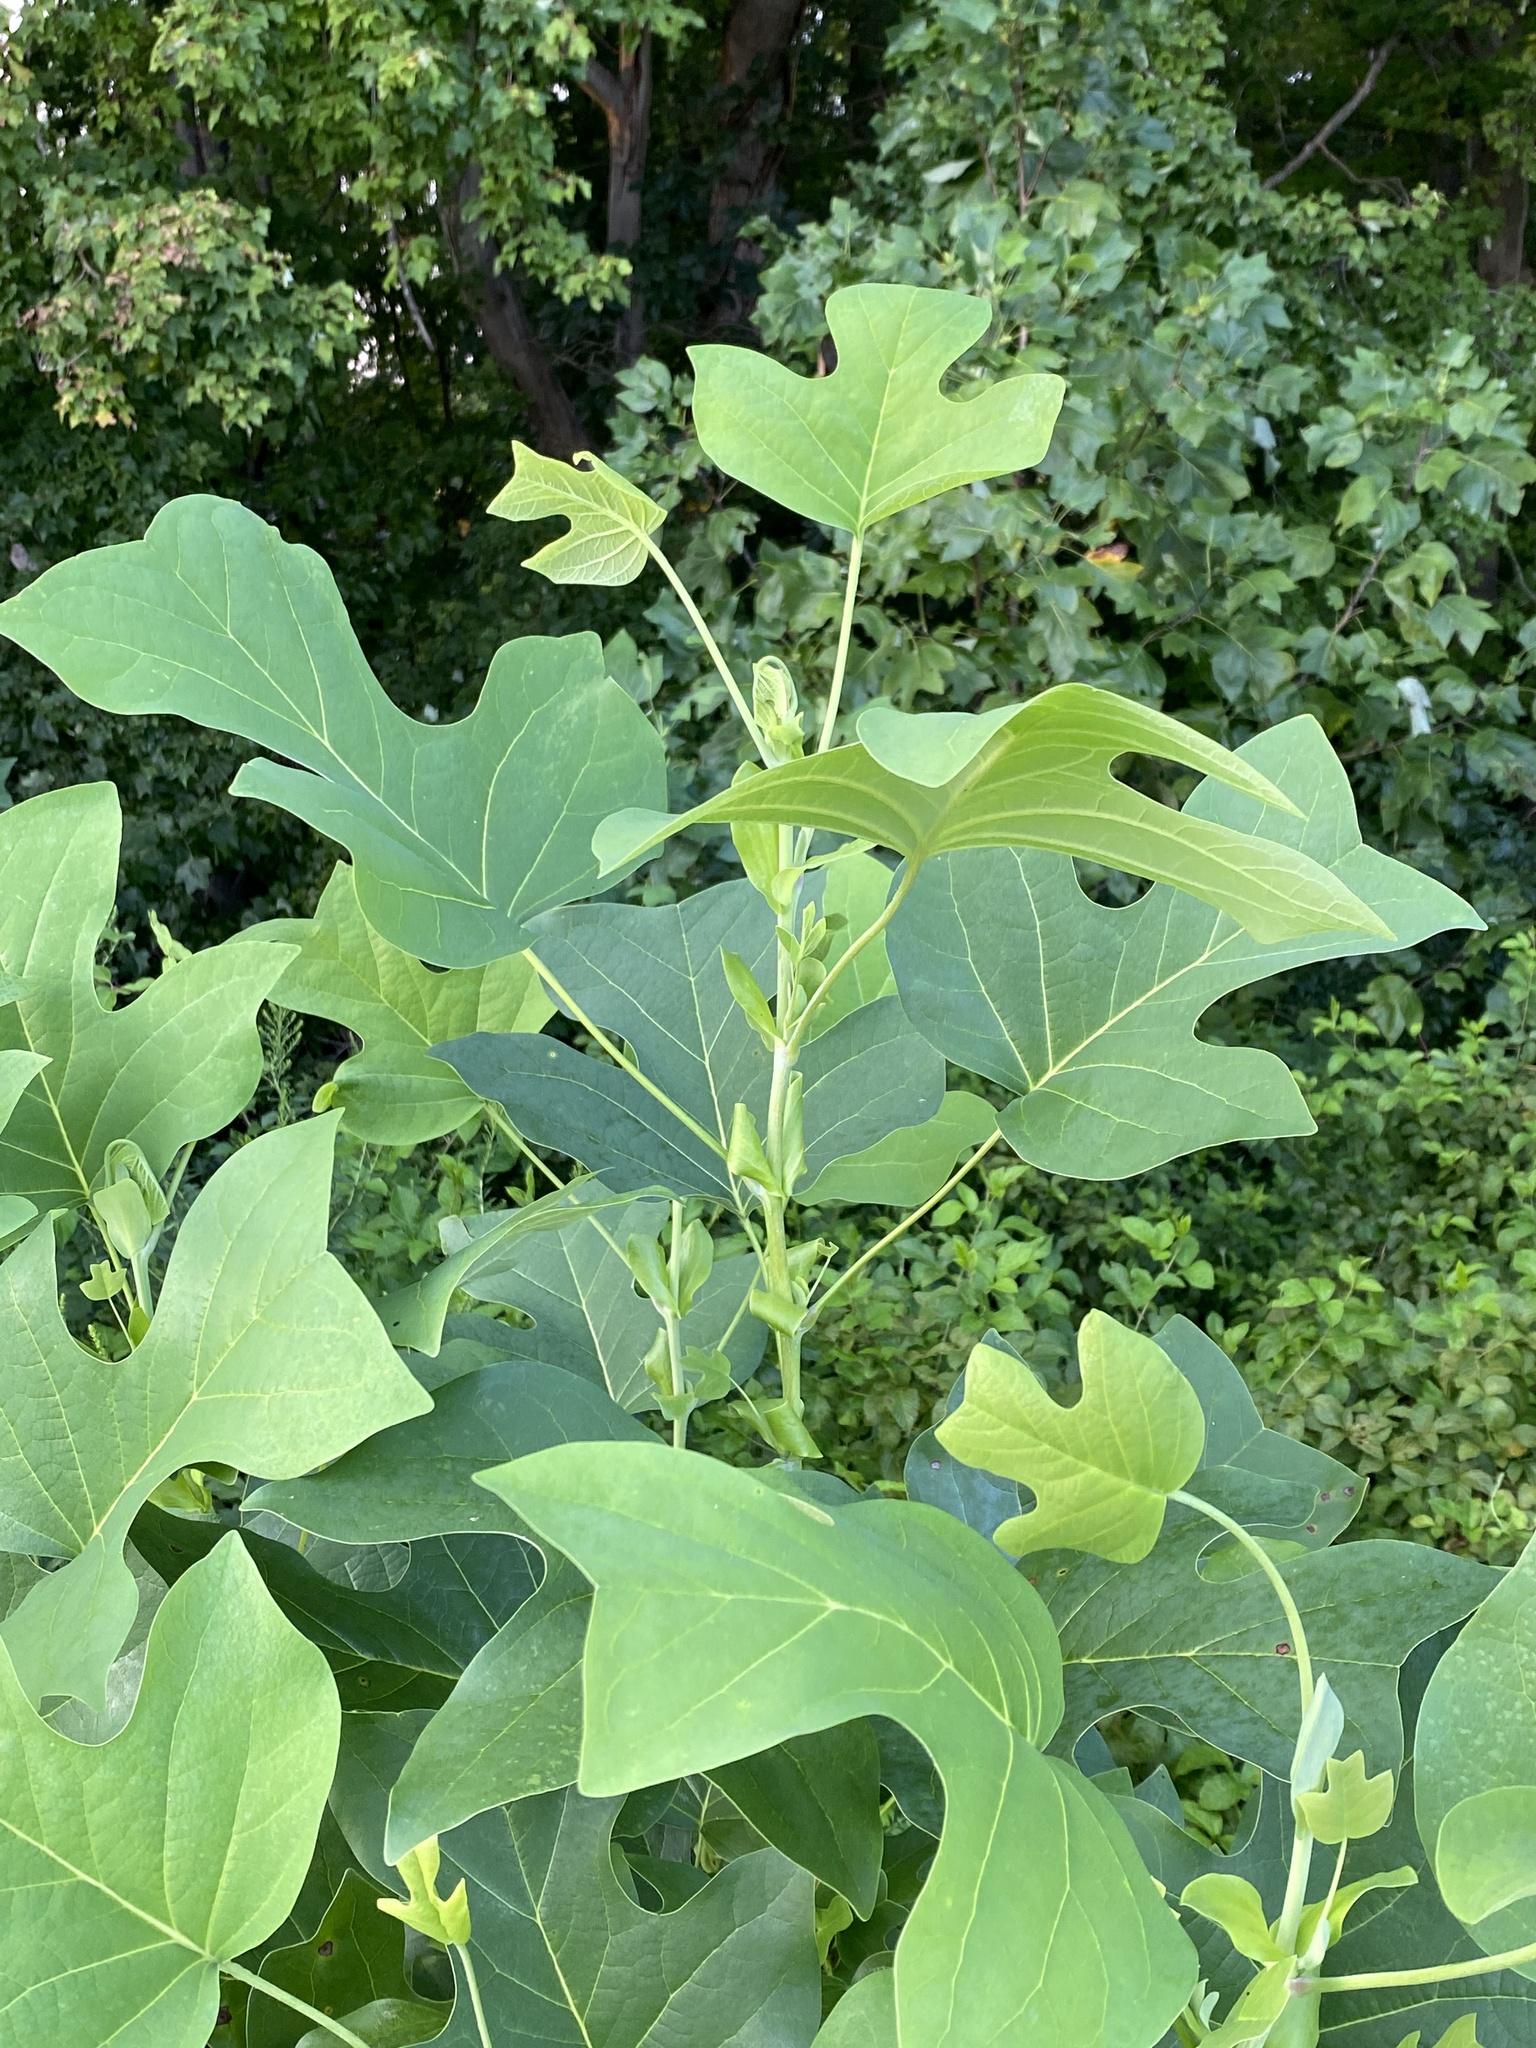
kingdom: Plantae
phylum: Tracheophyta
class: Magnoliopsida
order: Magnoliales
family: Magnoliaceae
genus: Liriodendron
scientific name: Liriodendron tulipifera
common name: Tulip tree
